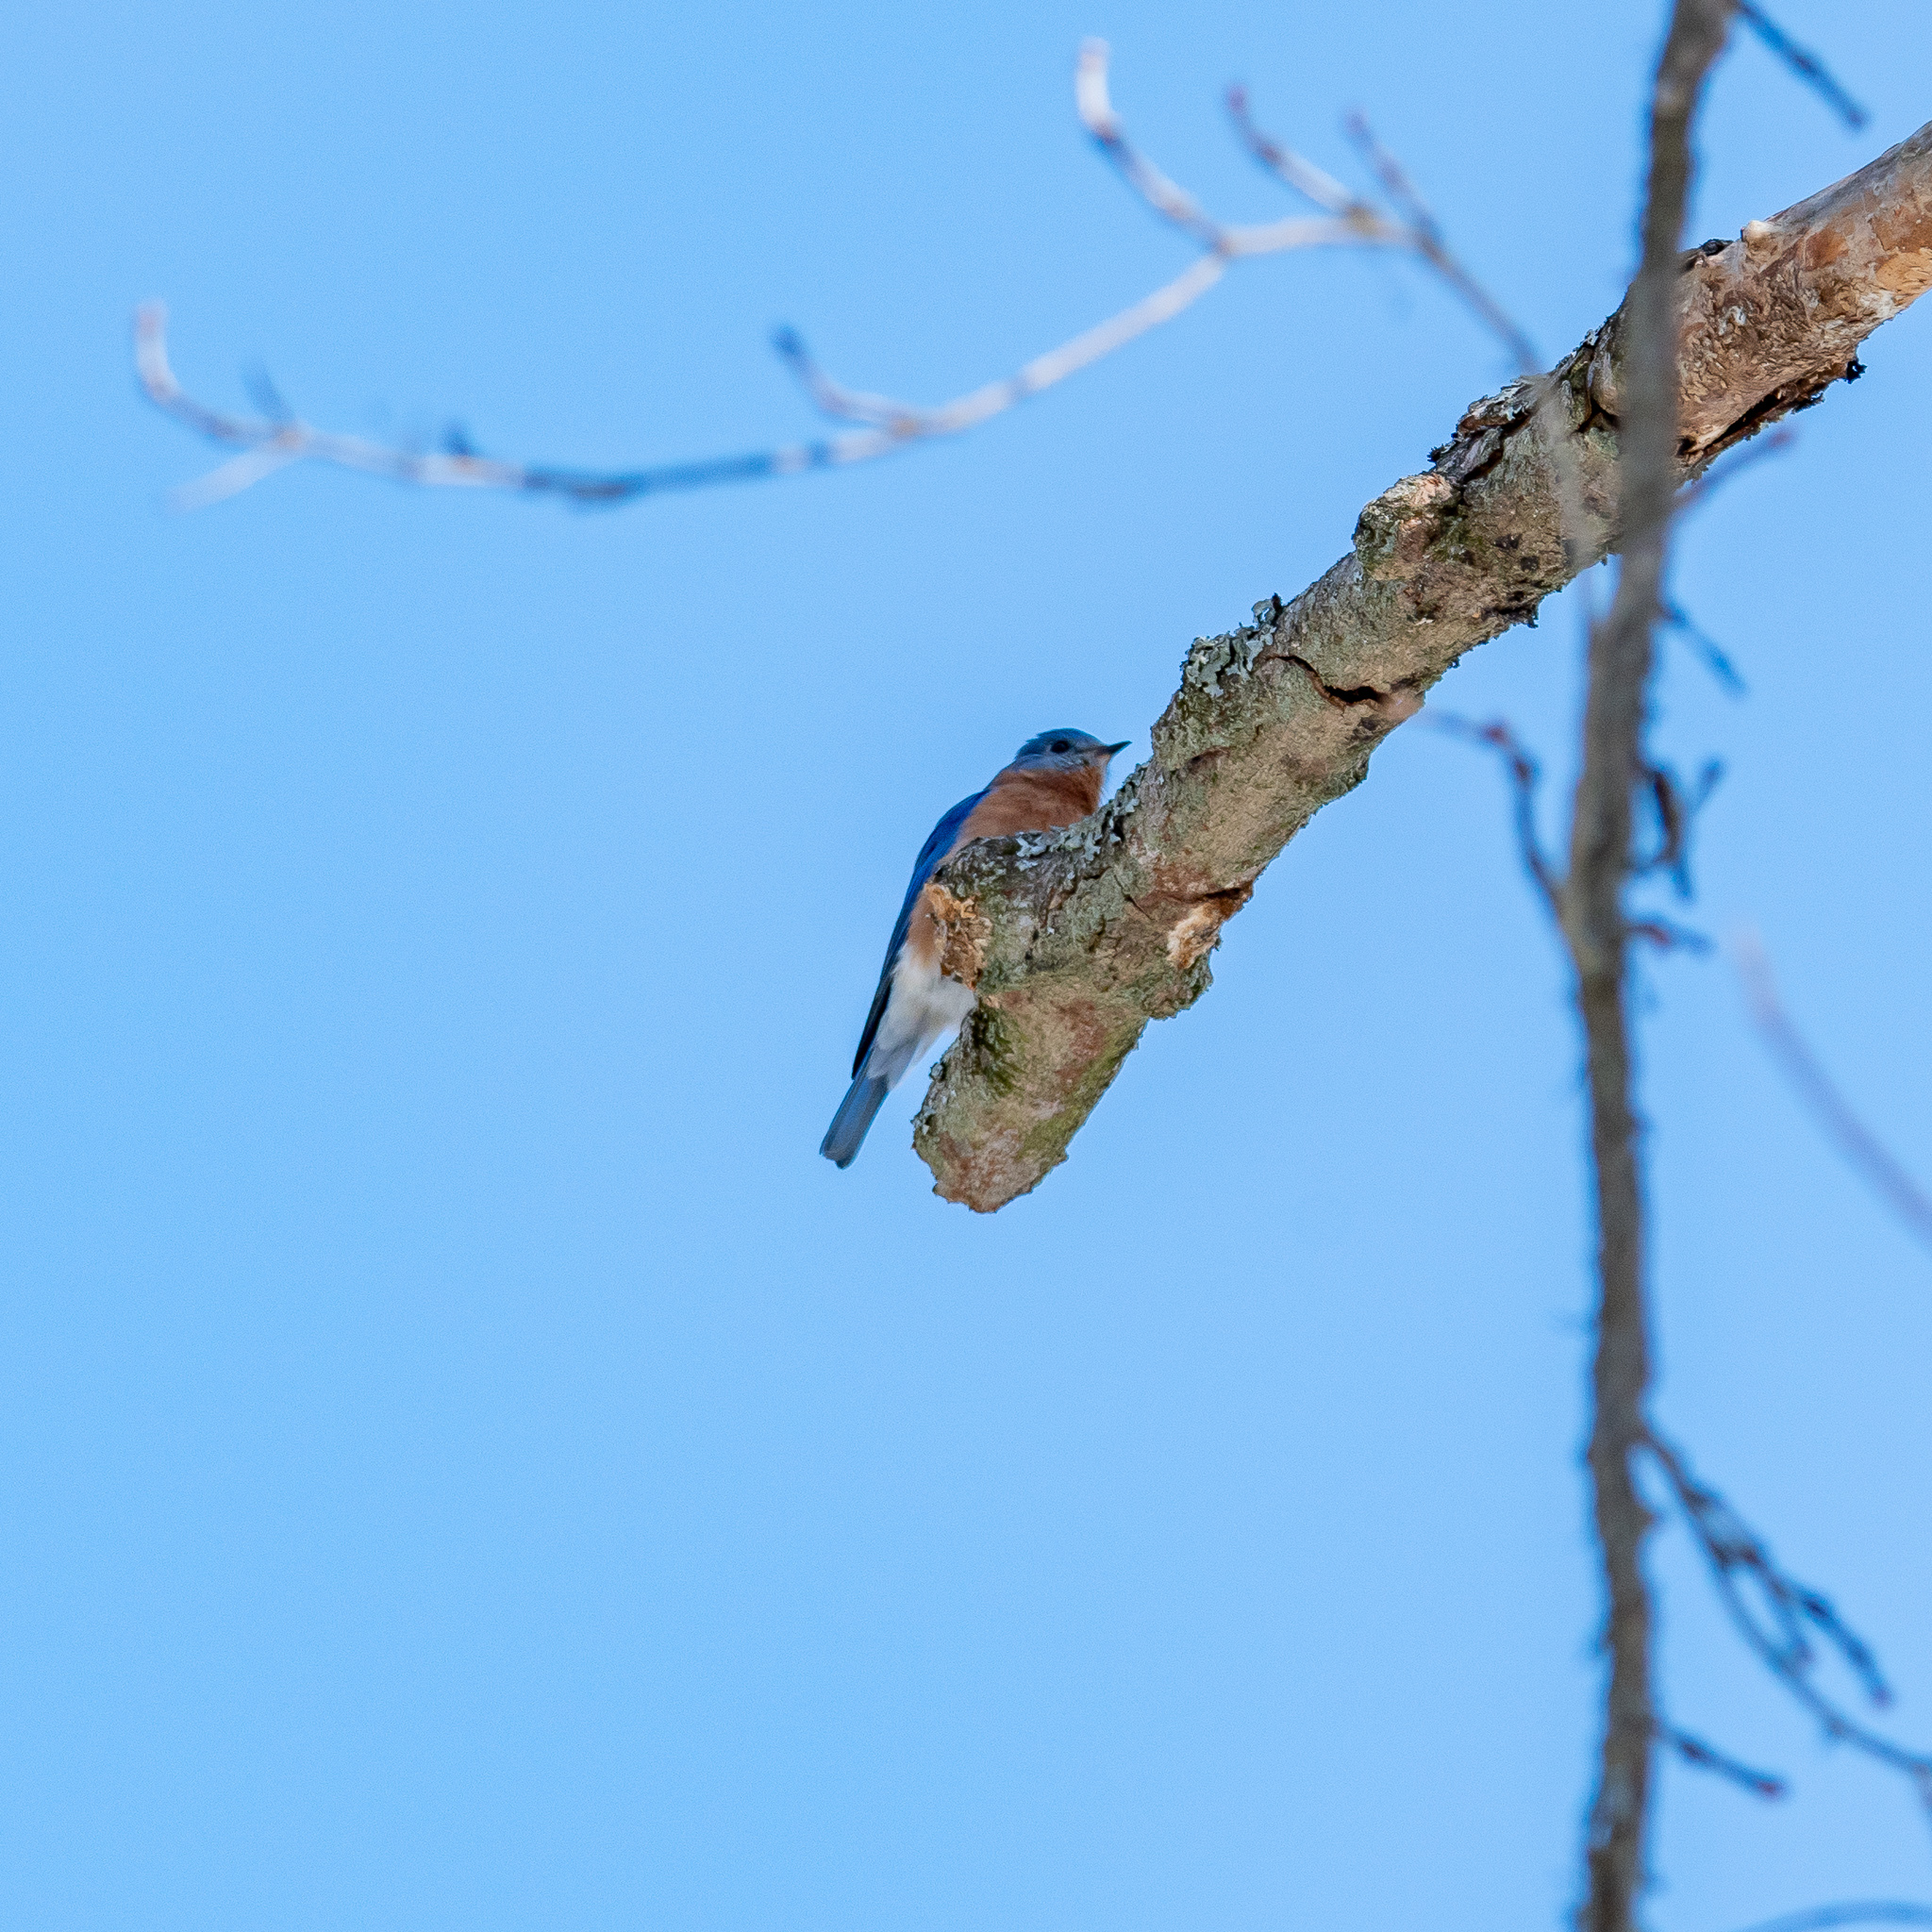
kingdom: Animalia
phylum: Chordata
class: Aves
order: Passeriformes
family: Turdidae
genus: Sialia
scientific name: Sialia sialis
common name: Eastern bluebird
